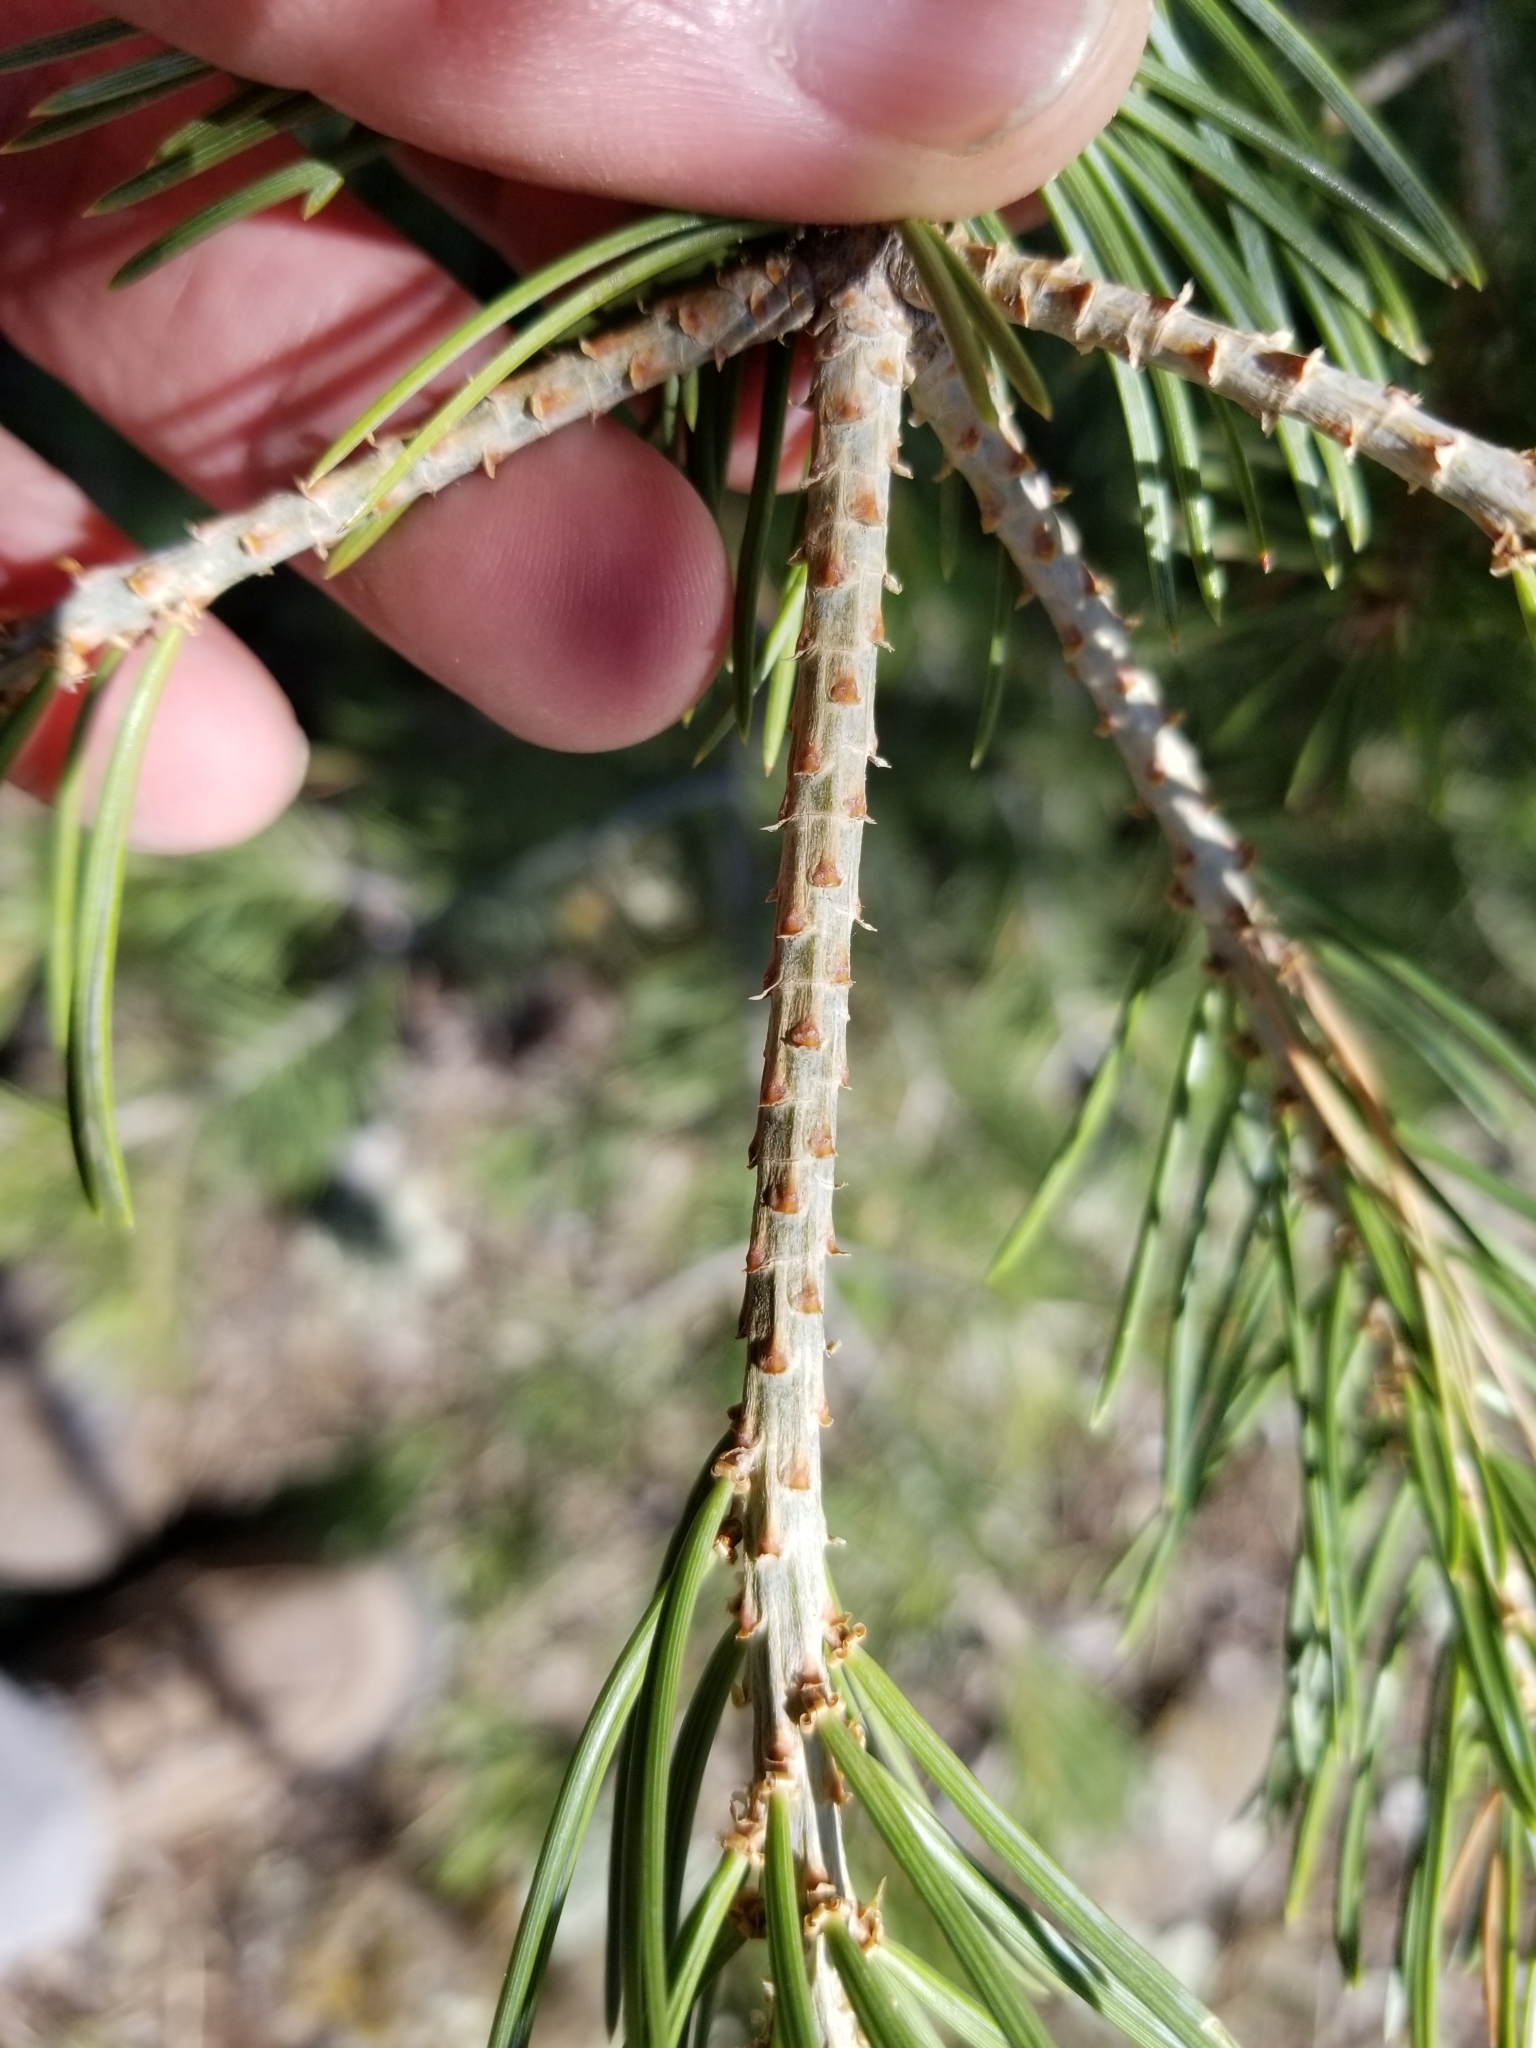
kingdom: Plantae
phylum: Tracheophyta
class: Pinopsida
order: Pinales
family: Pinaceae
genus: Pinus
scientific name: Pinus edulis
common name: Colorado pinyon
